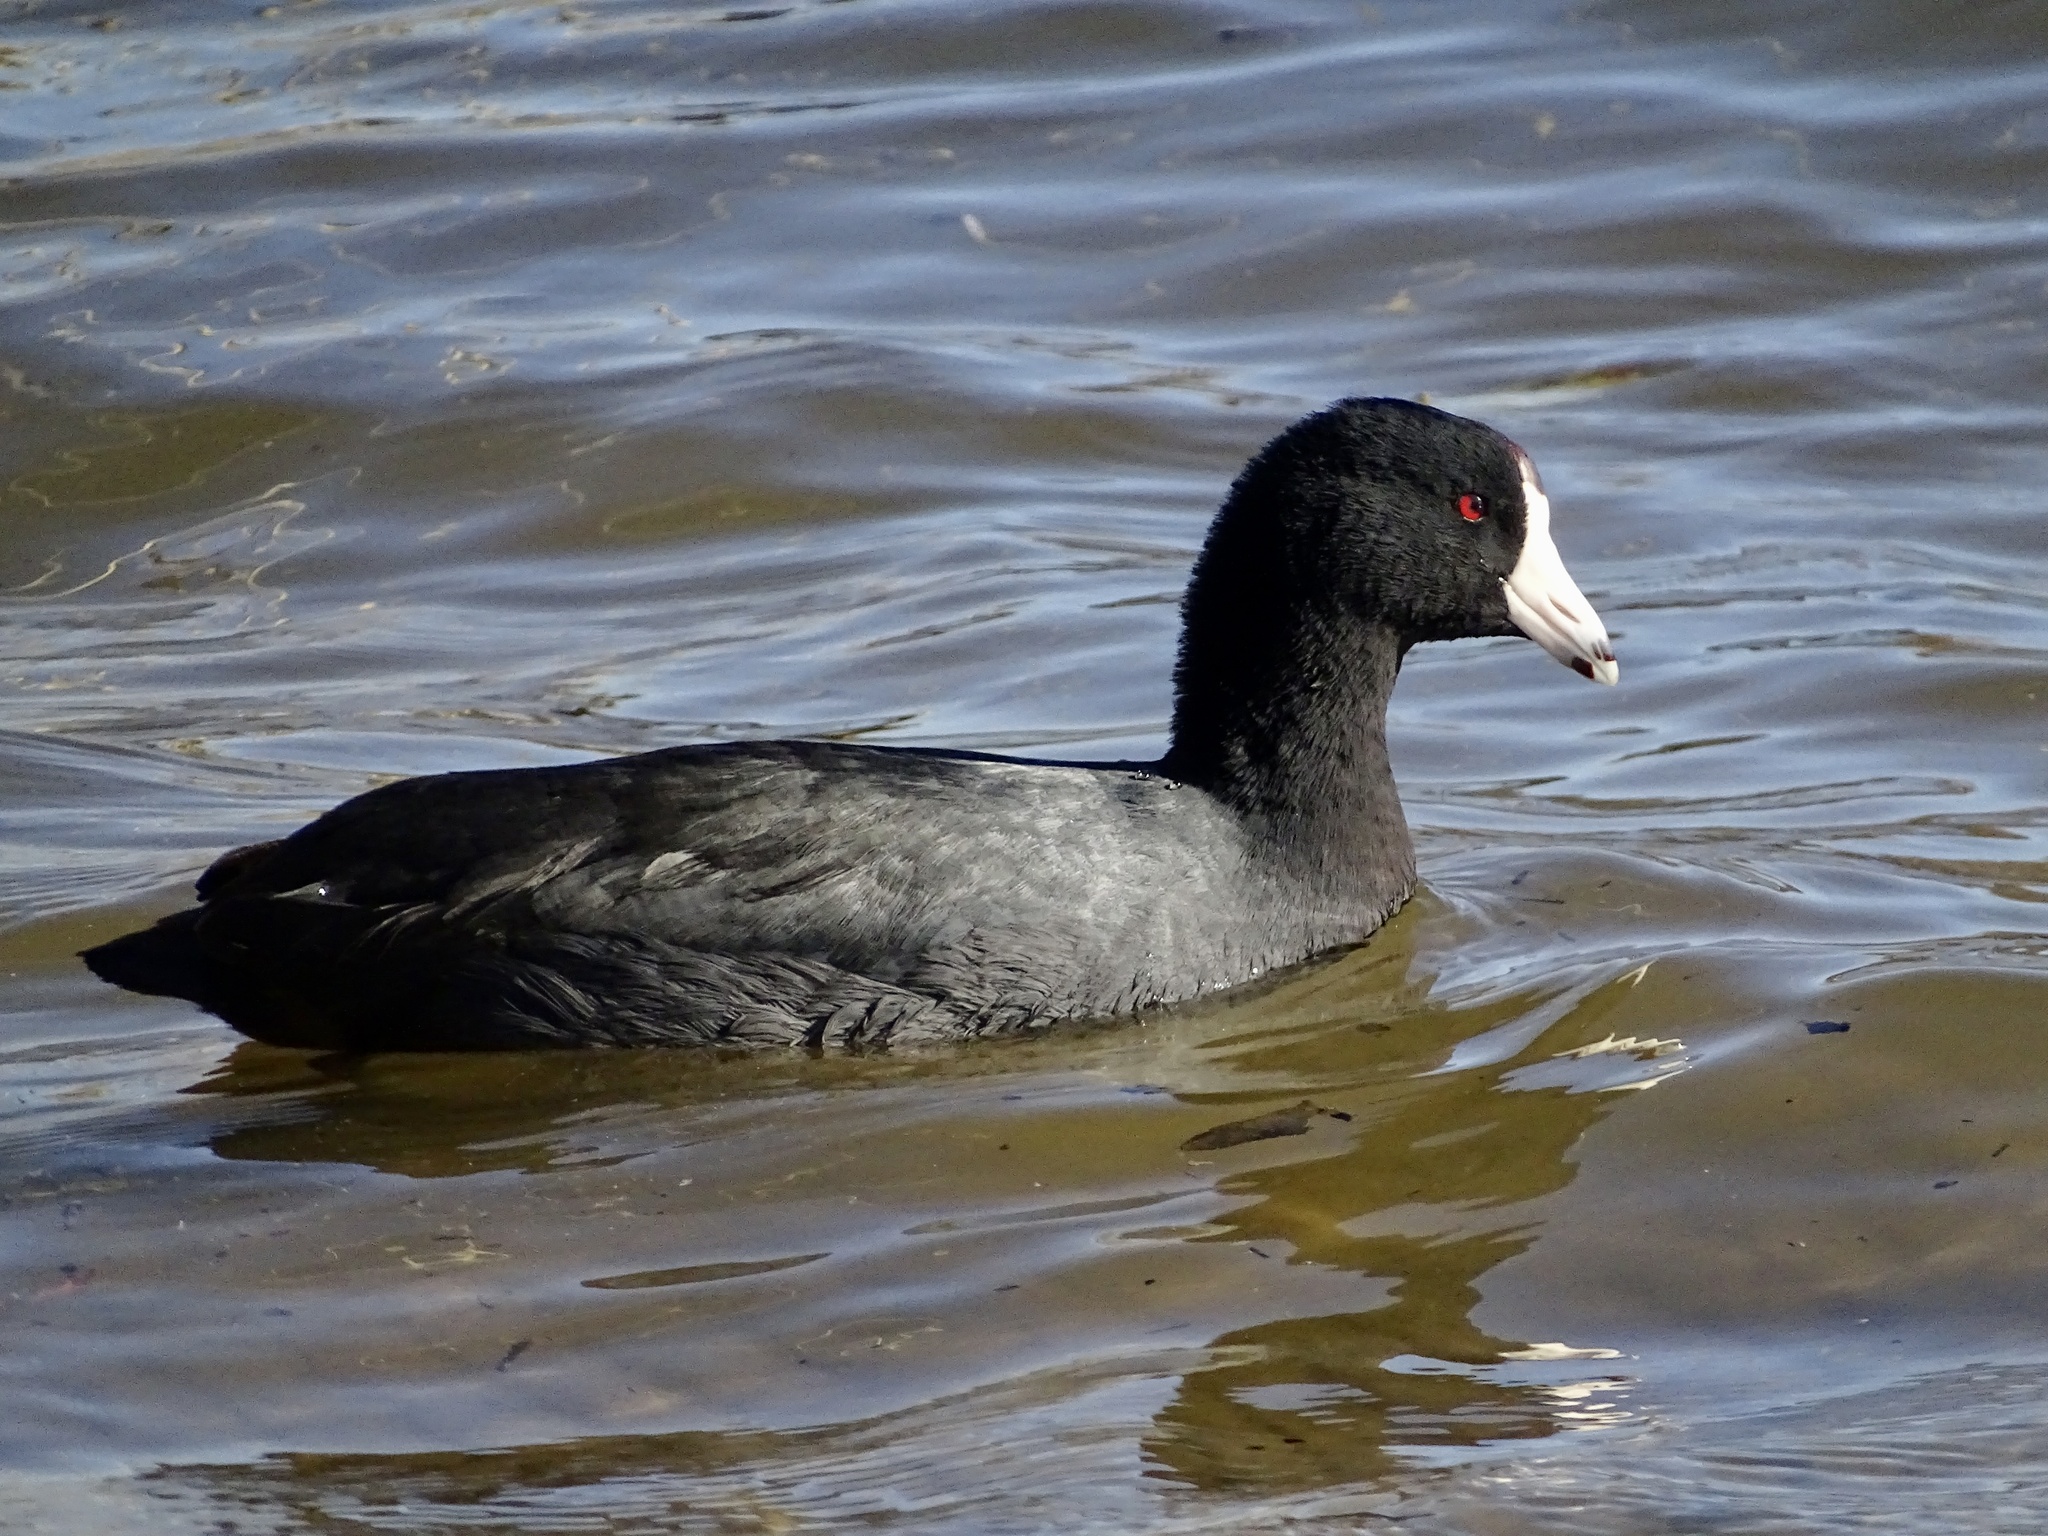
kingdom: Animalia
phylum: Chordata
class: Aves
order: Gruiformes
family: Rallidae
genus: Fulica
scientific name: Fulica americana
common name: American coot
